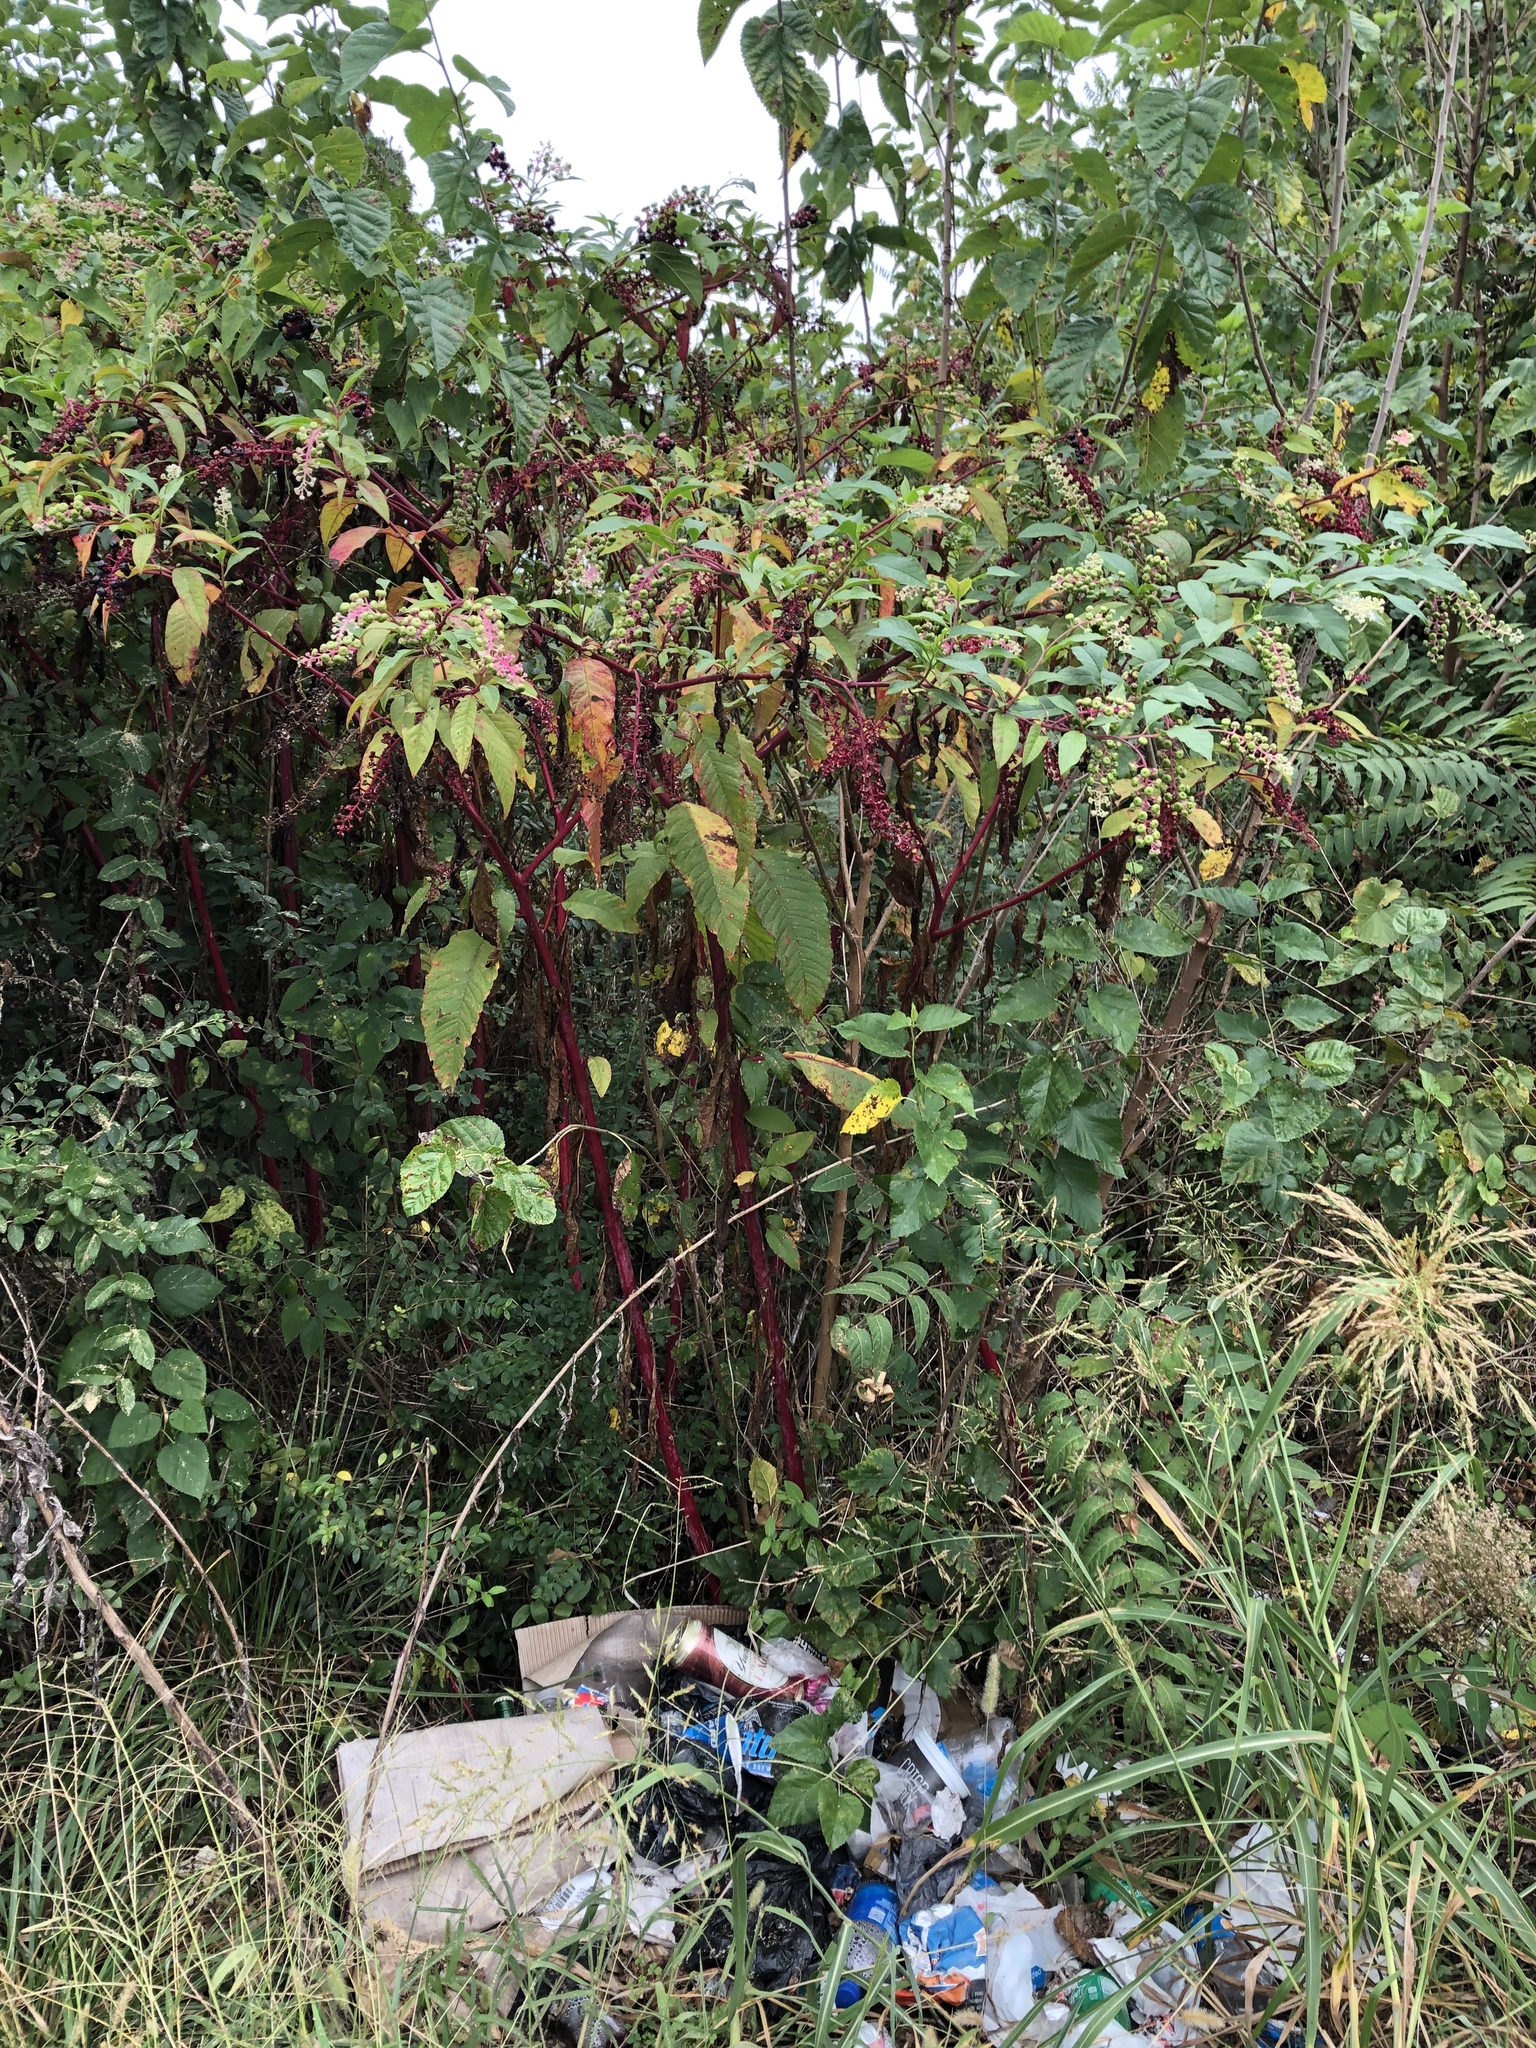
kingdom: Plantae
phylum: Tracheophyta
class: Magnoliopsida
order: Caryophyllales
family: Phytolaccaceae
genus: Phytolacca
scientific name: Phytolacca americana
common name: American pokeweed
